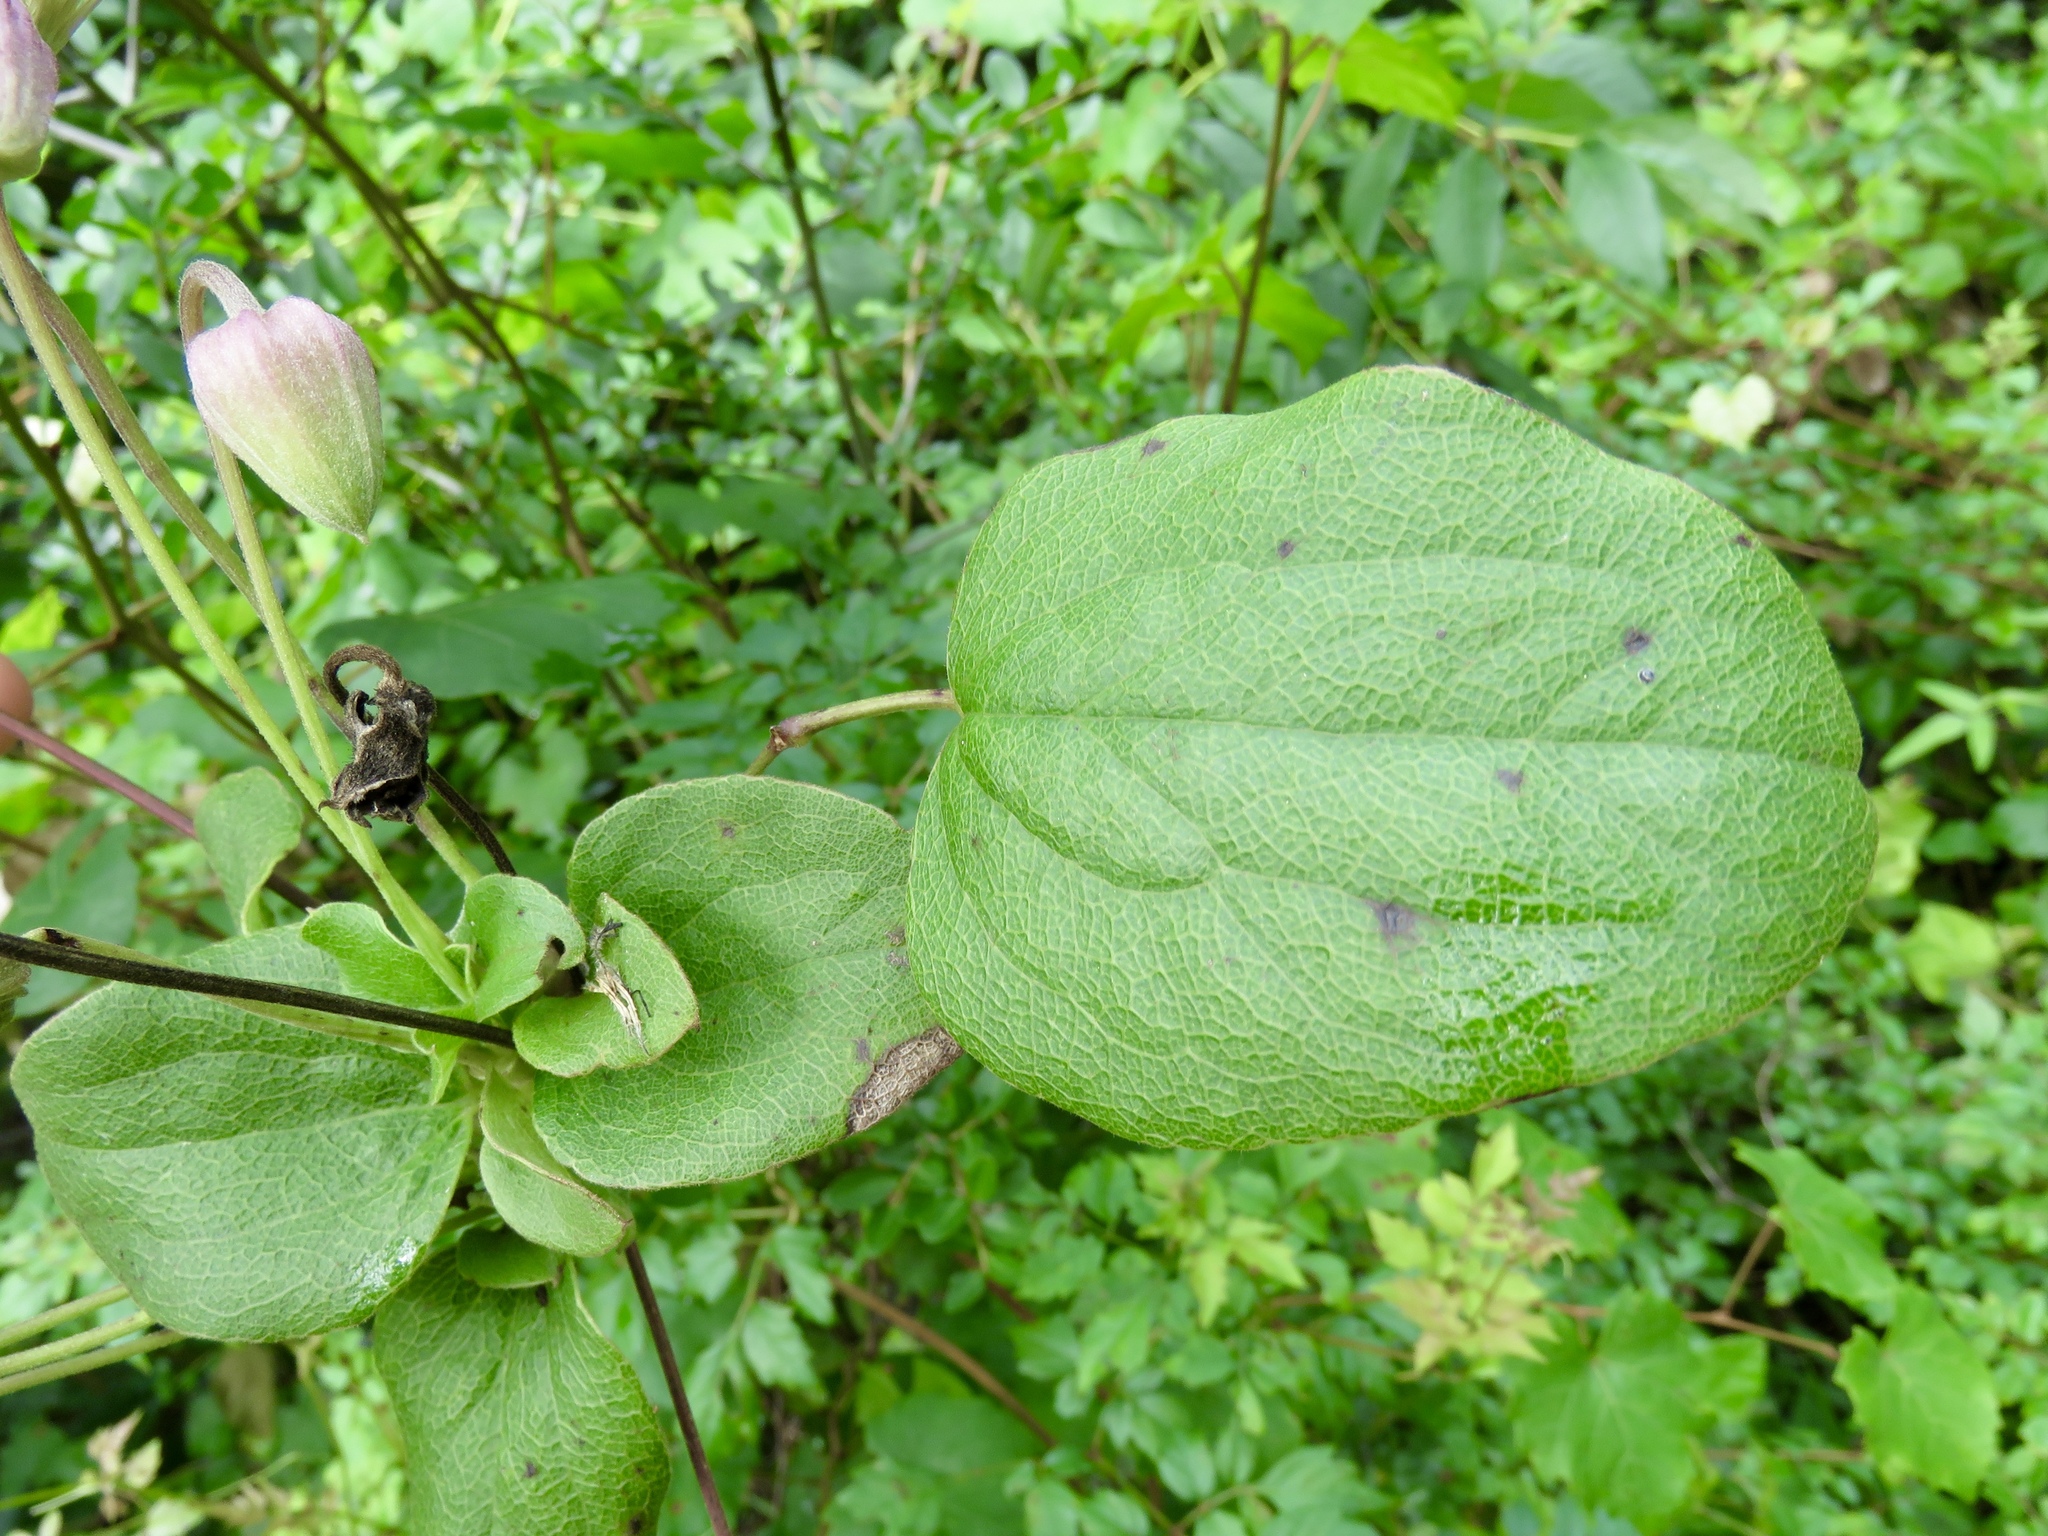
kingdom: Plantae
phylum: Tracheophyta
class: Magnoliopsida
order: Ranunculales
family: Ranunculaceae
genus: Clematis
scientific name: Clematis reticulata
